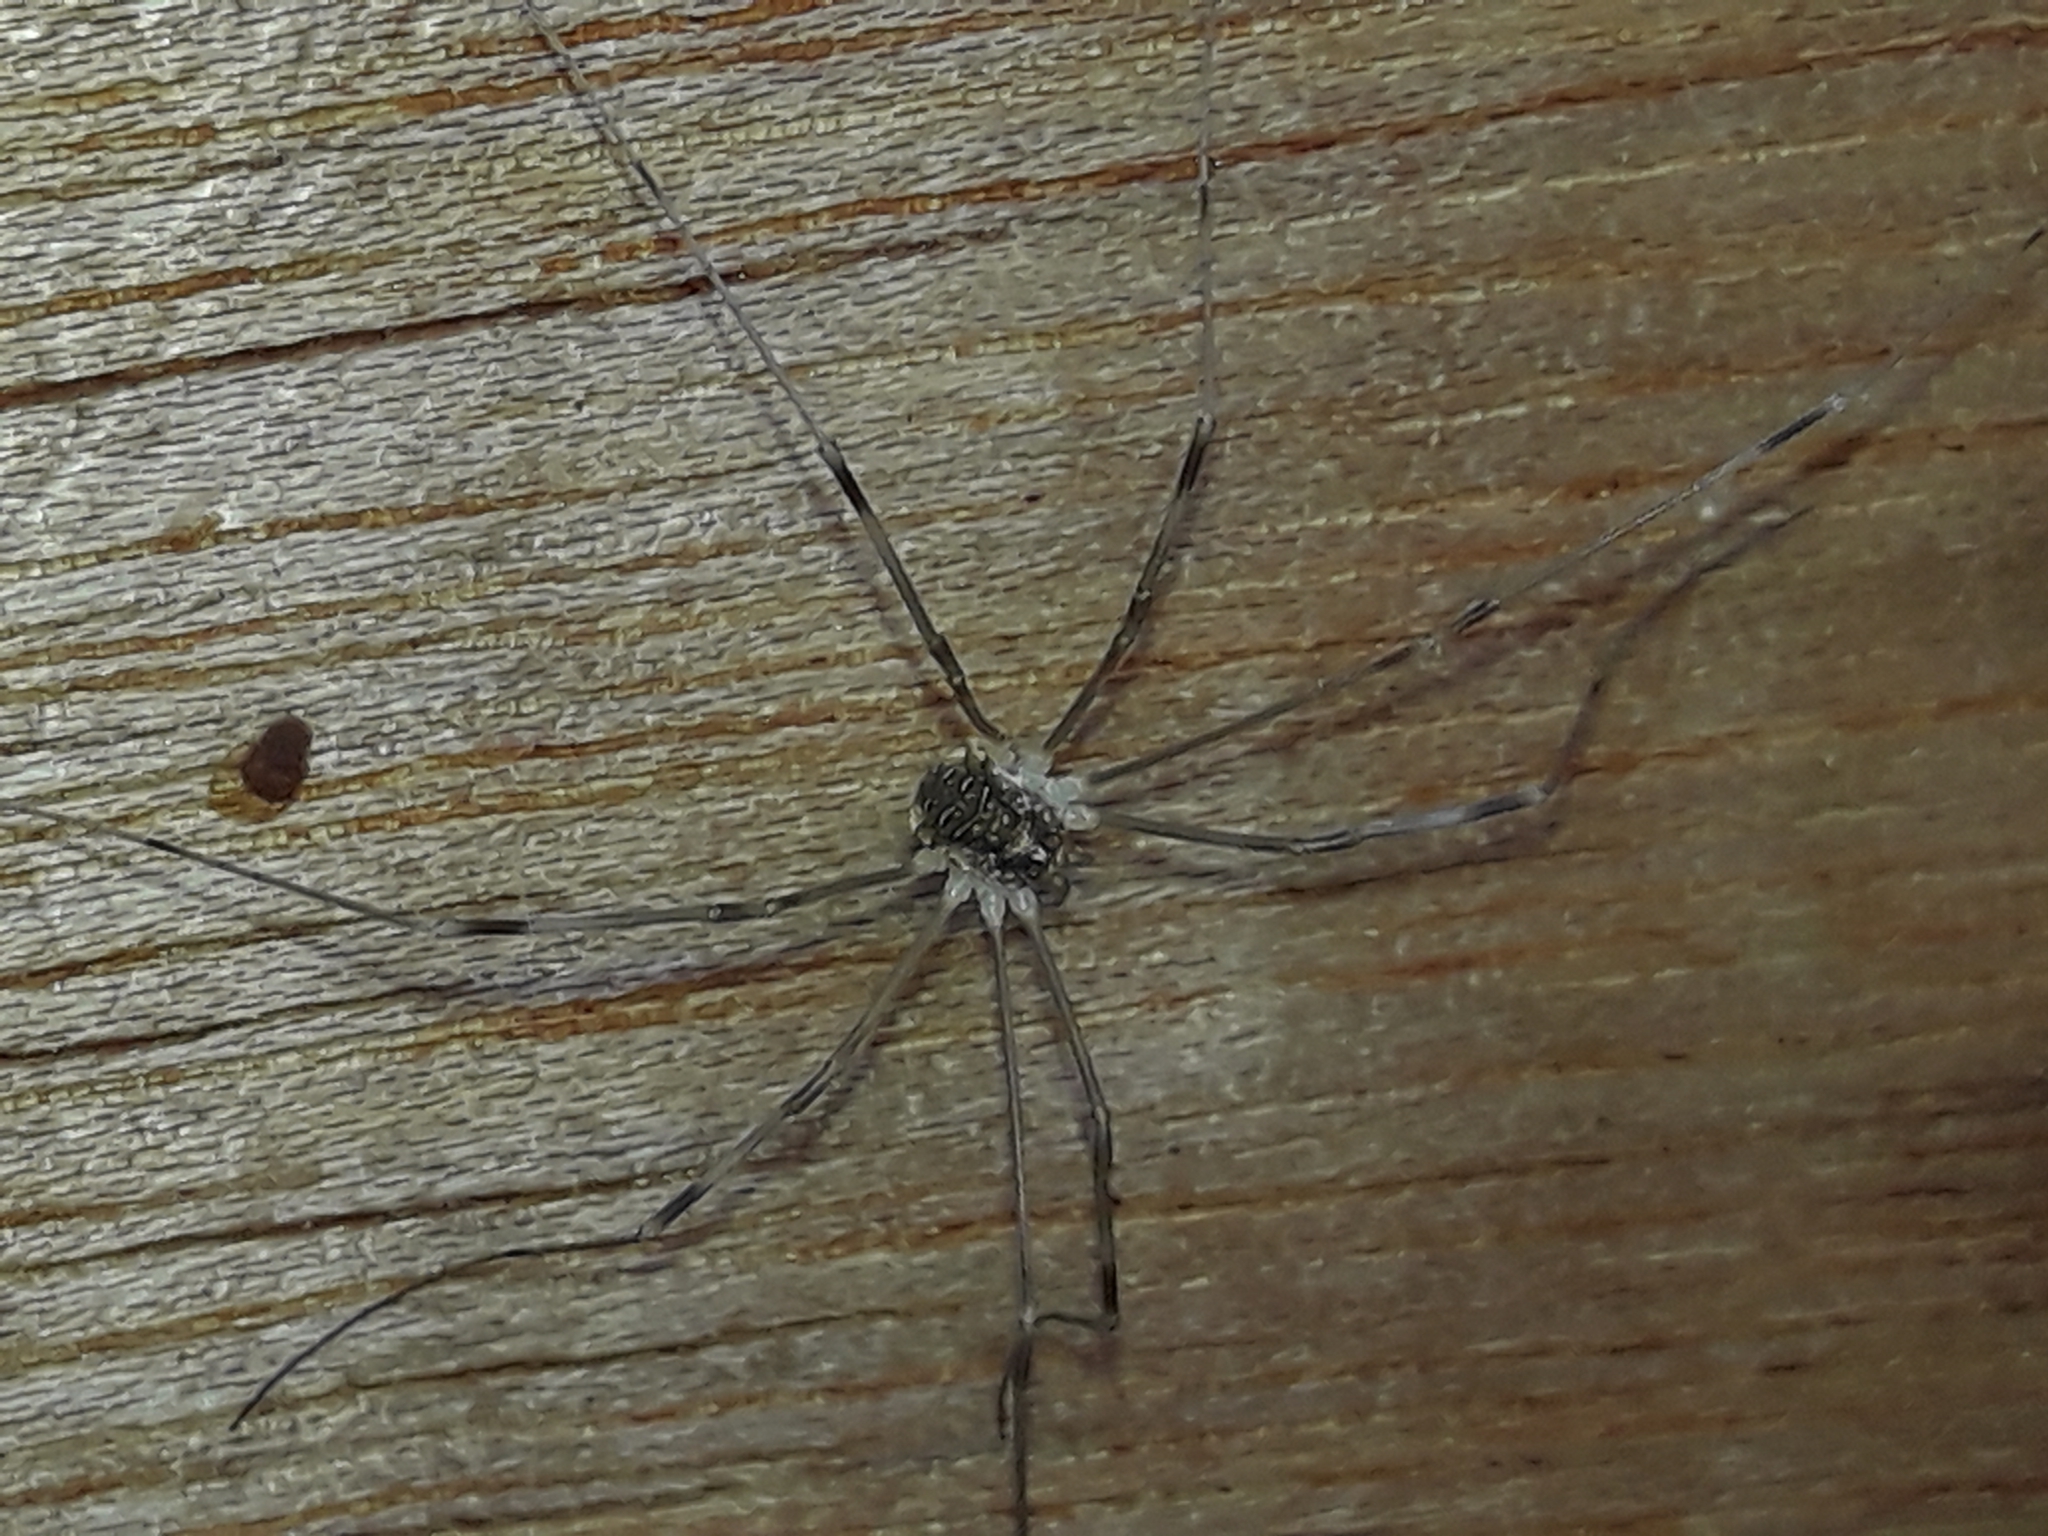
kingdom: Animalia
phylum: Arthropoda
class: Arachnida
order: Opiliones
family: Phalangiidae
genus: Opilio
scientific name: Opilio canestrinii
